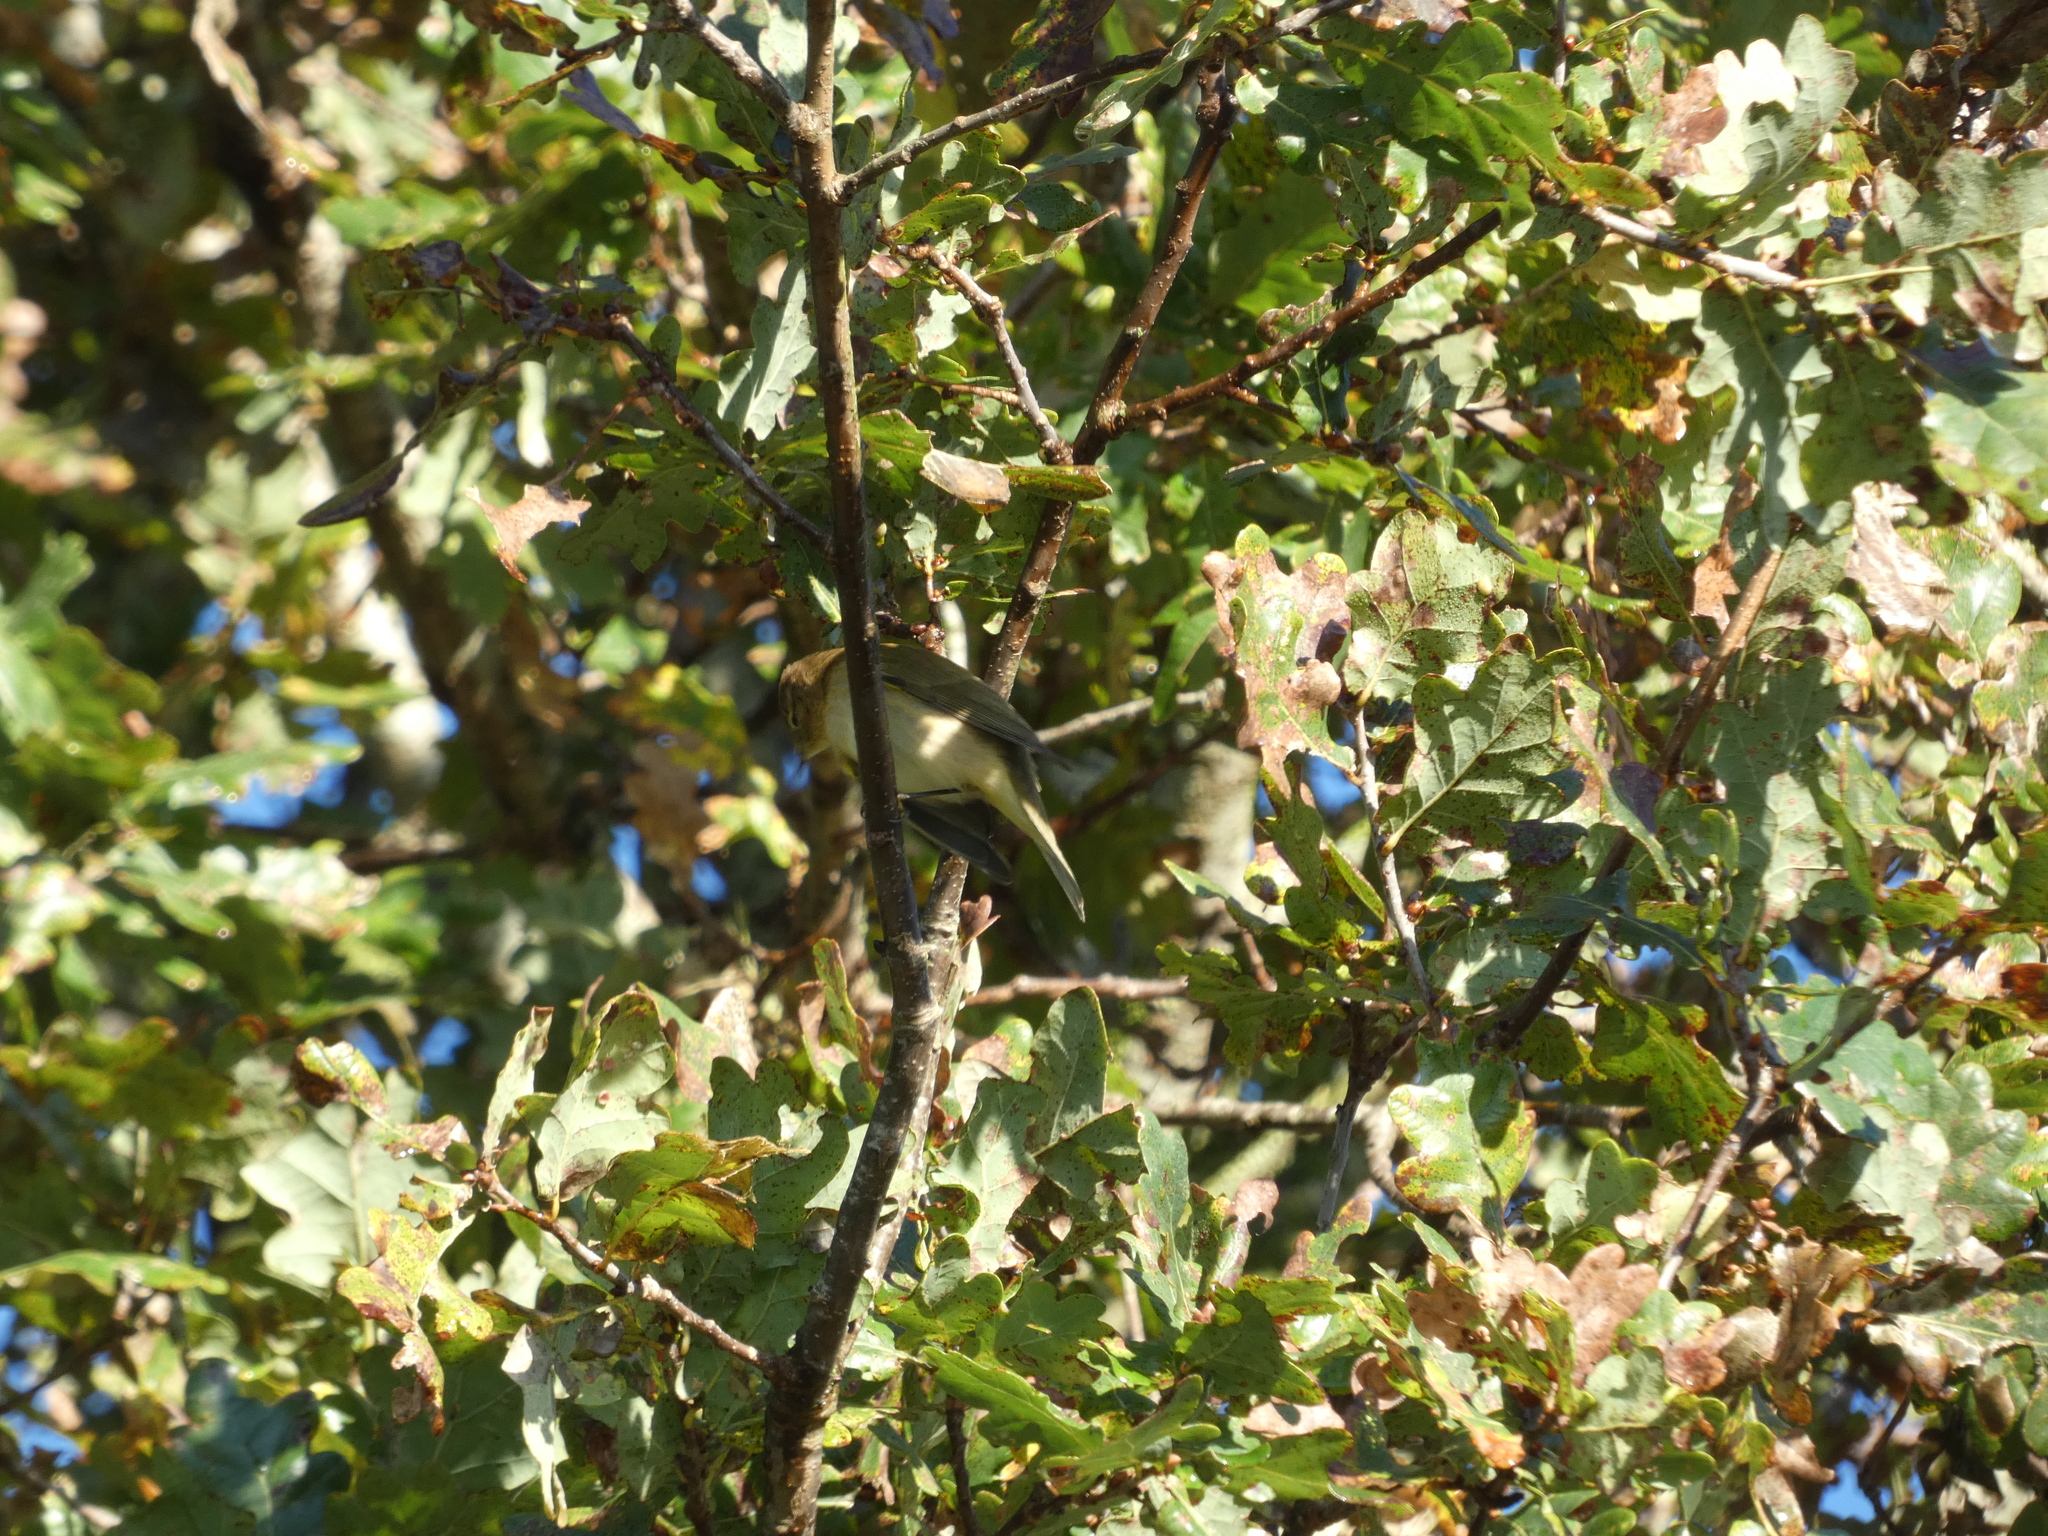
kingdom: Animalia
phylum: Chordata
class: Aves
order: Passeriformes
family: Phylloscopidae
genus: Phylloscopus
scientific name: Phylloscopus collybita
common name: Common chiffchaff
